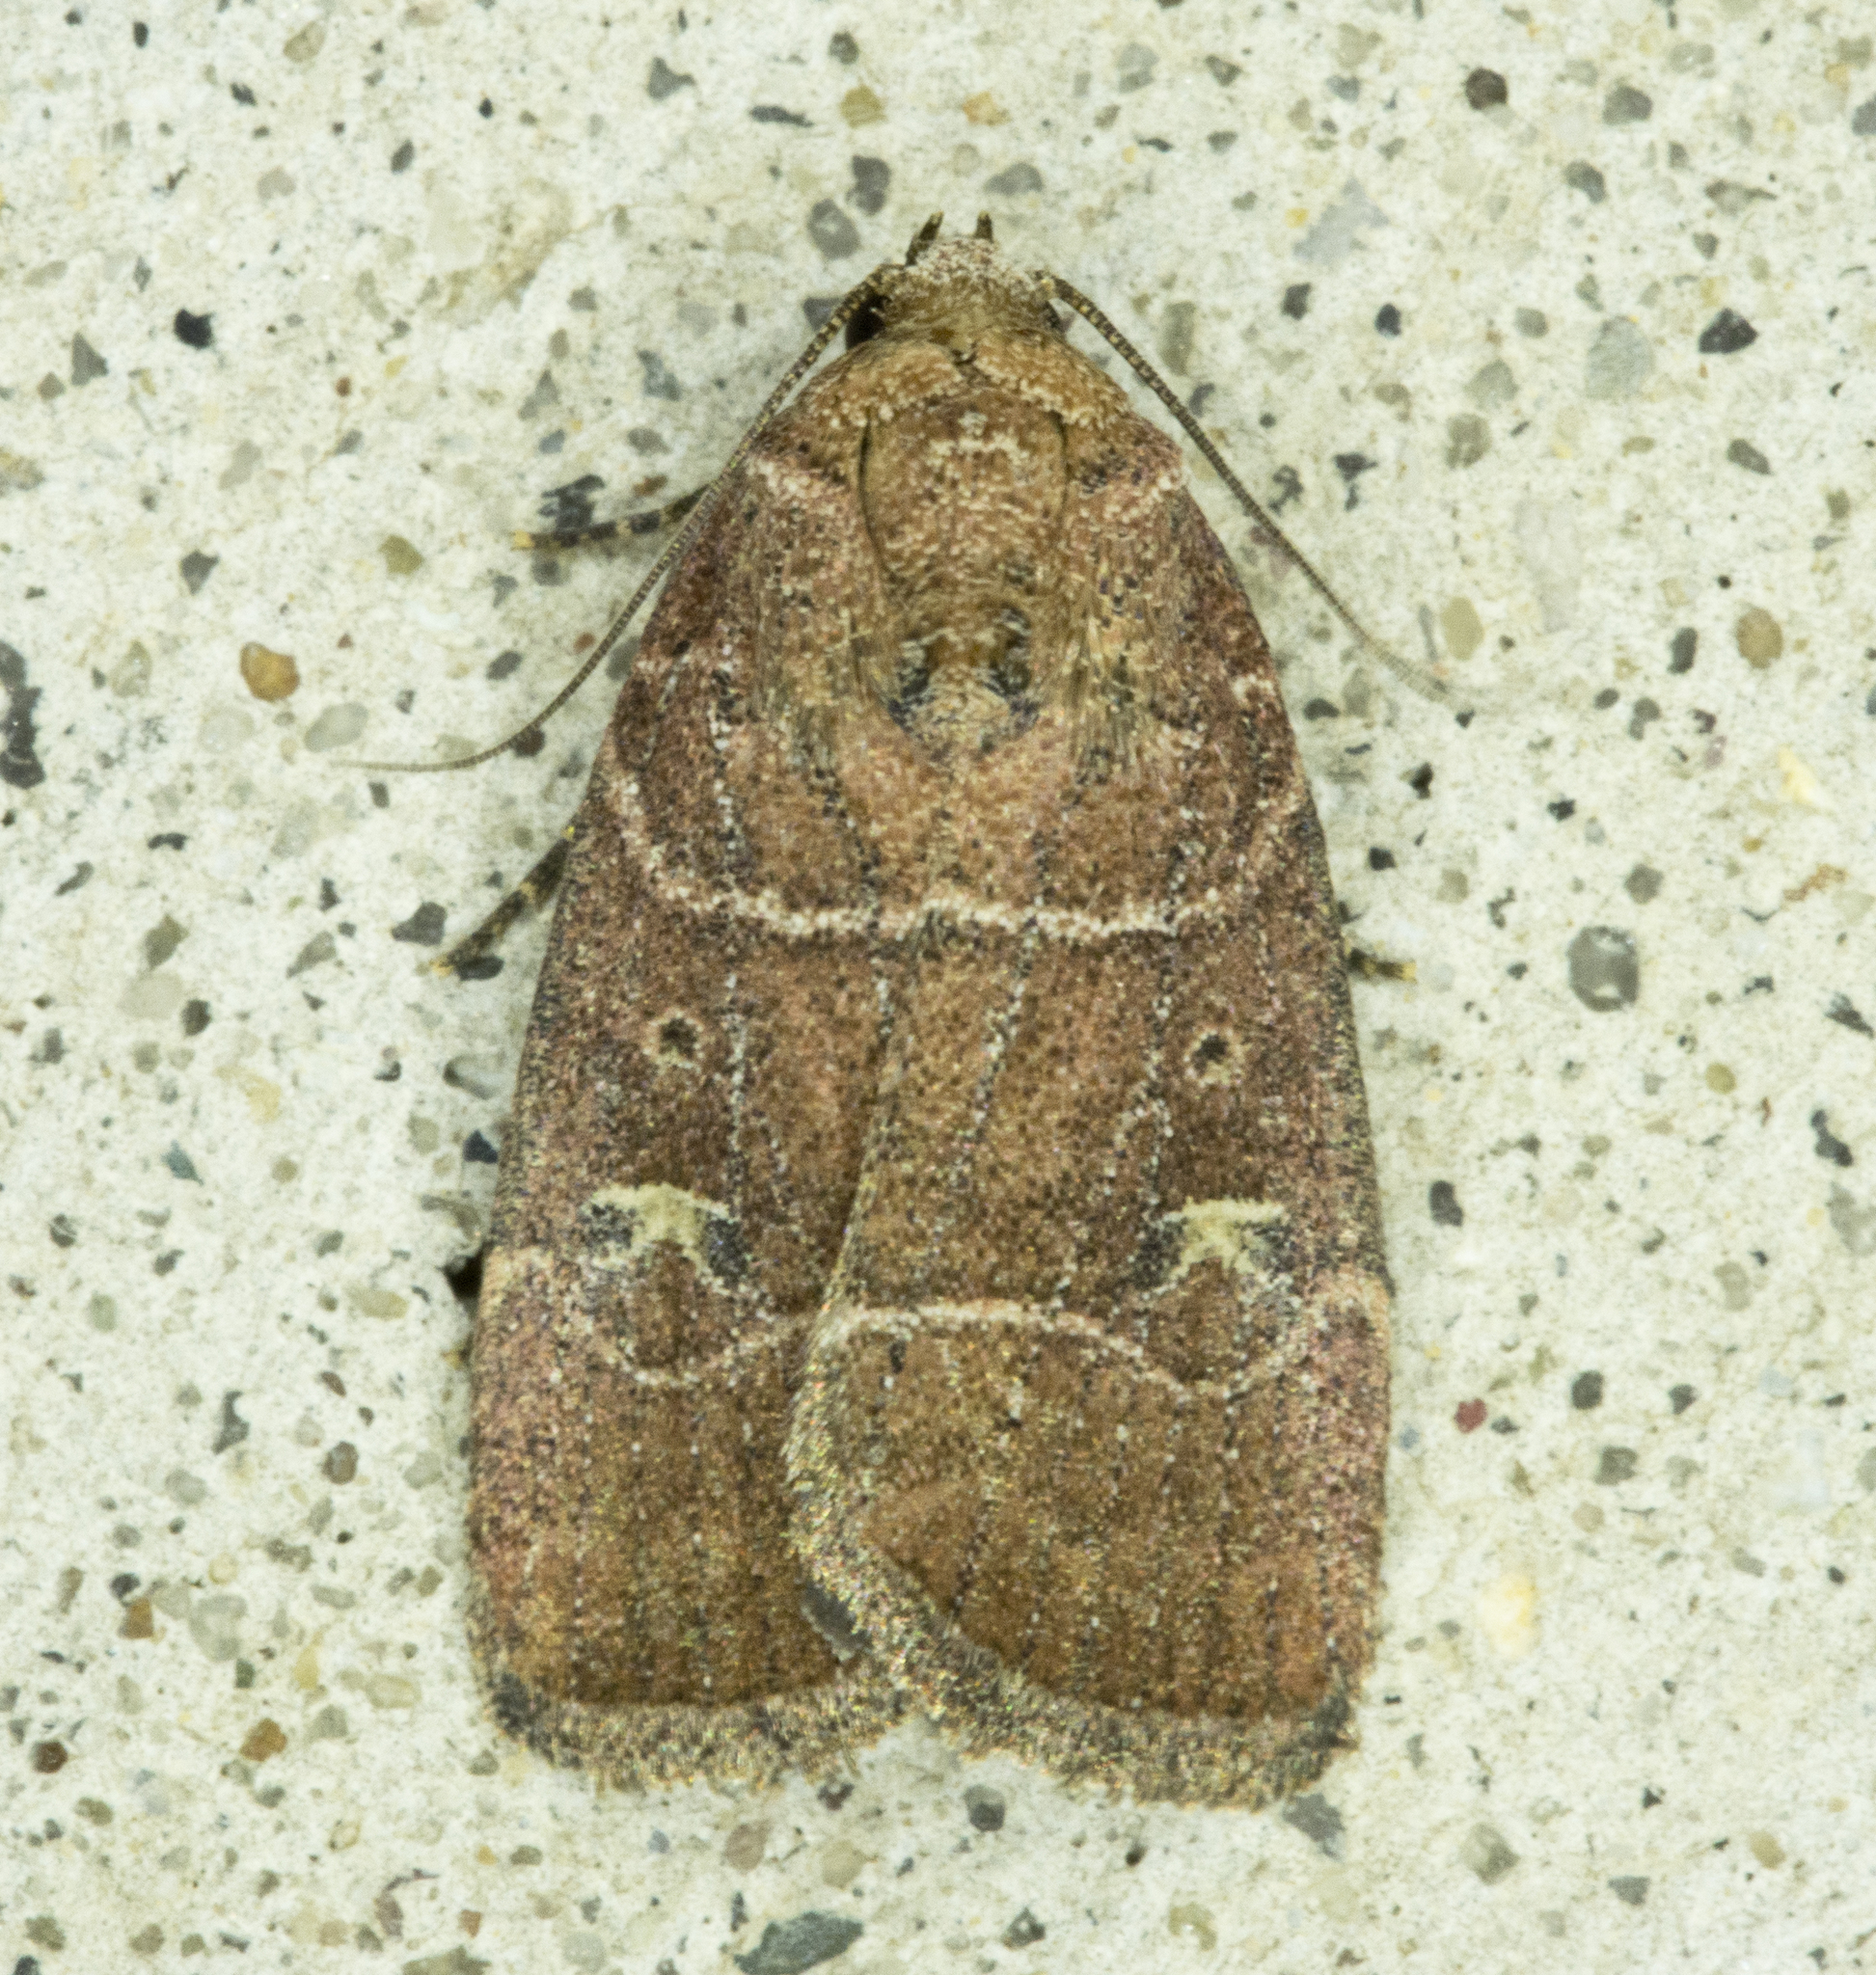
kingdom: Animalia
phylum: Arthropoda
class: Insecta
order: Lepidoptera
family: Noctuidae
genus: Elaphria
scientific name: Elaphria grata
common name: Grateful midget moth
